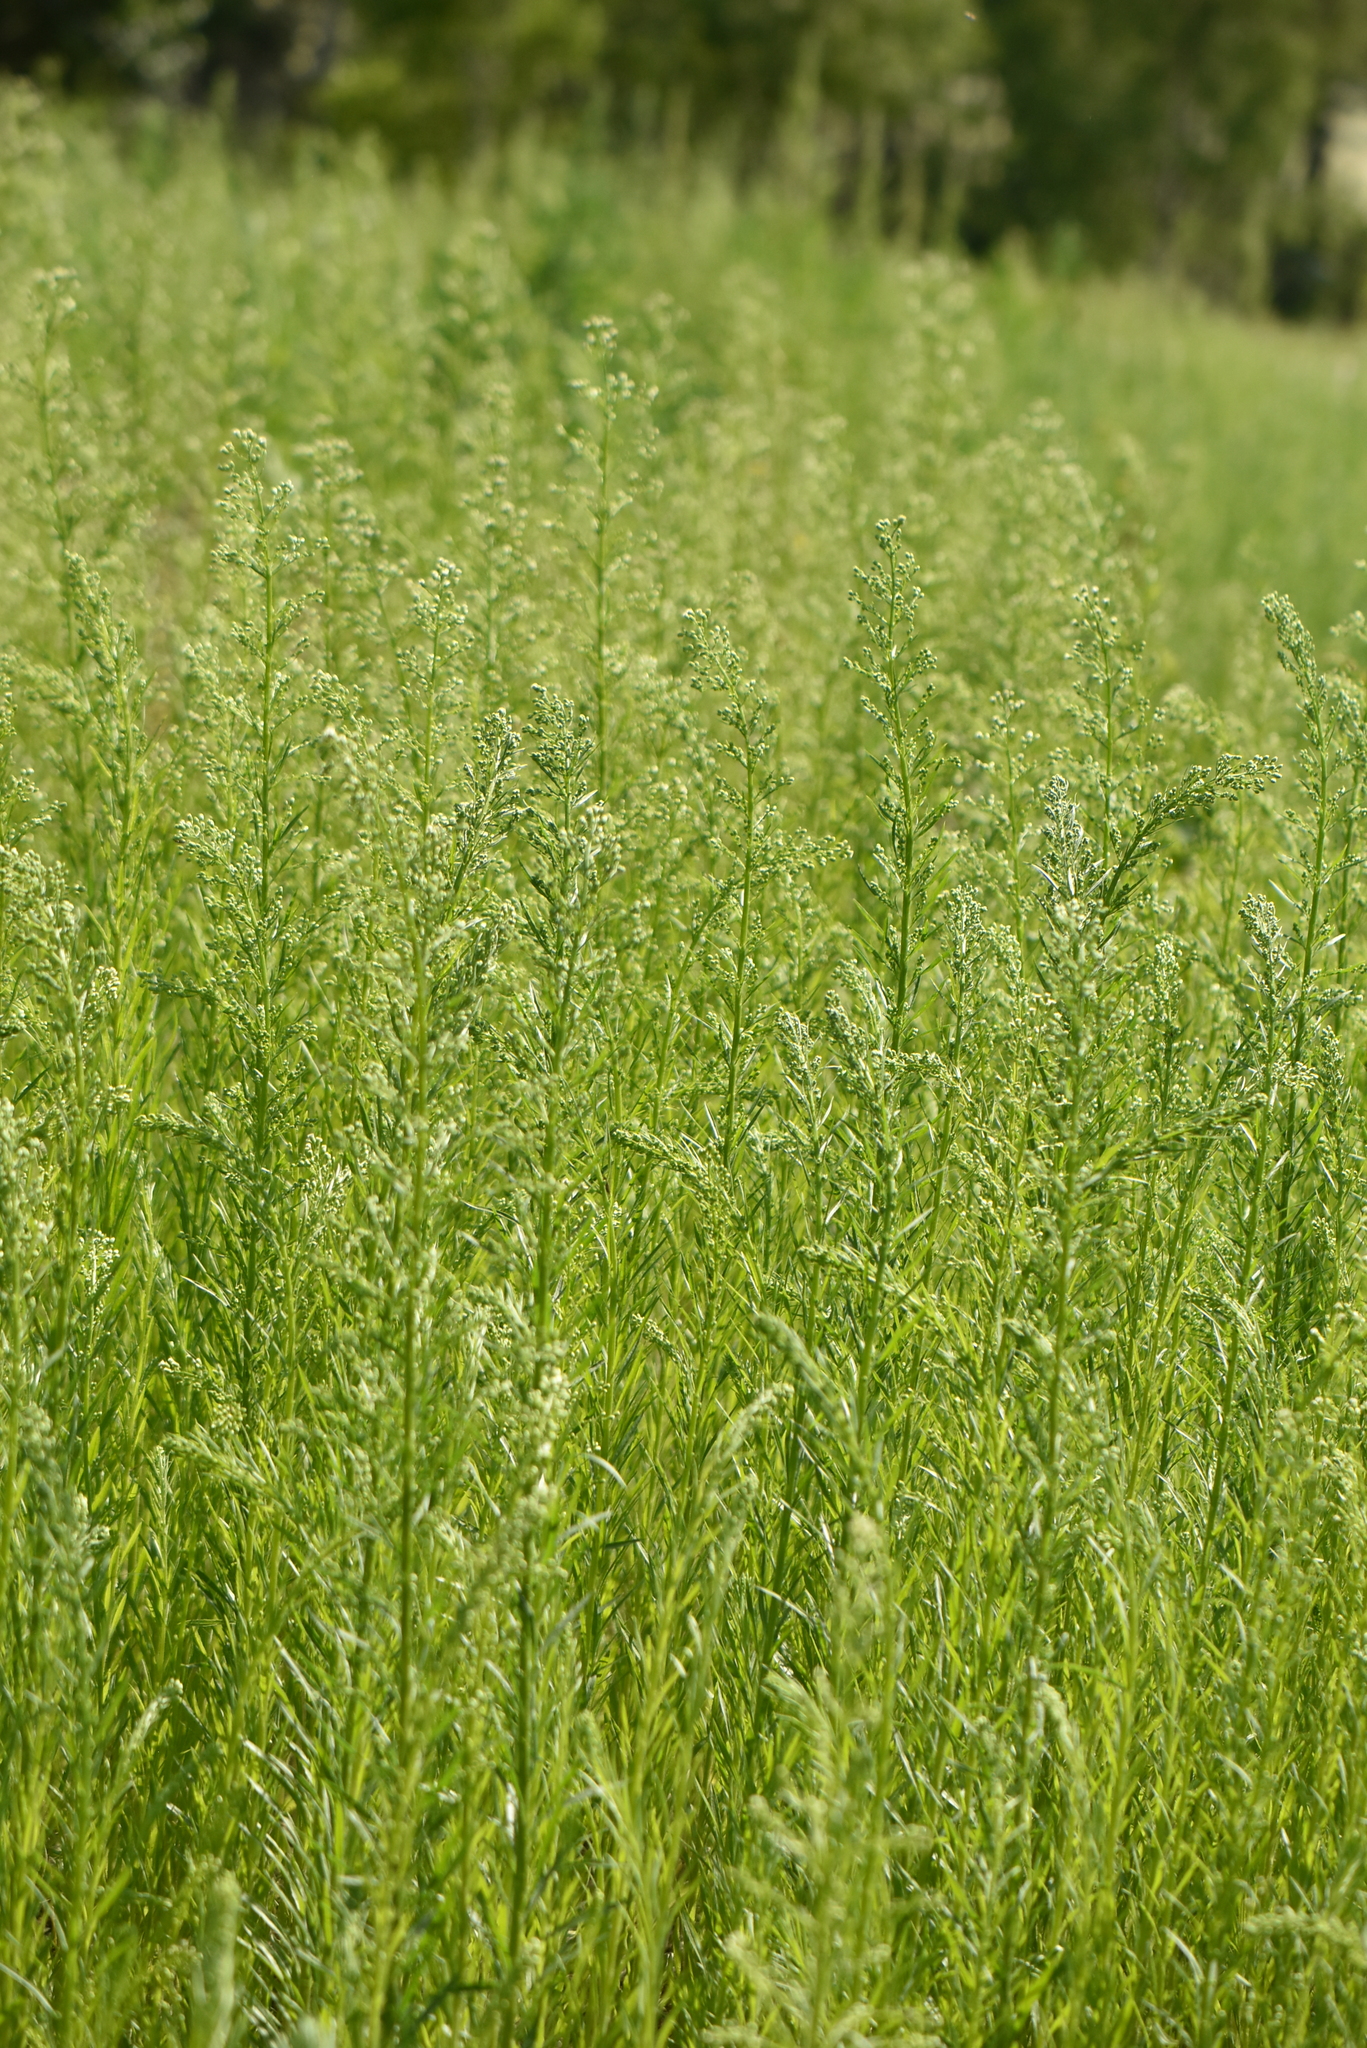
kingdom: Plantae
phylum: Tracheophyta
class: Magnoliopsida
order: Asterales
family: Asteraceae
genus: Erigeron
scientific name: Erigeron canadensis
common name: Canadian fleabane
